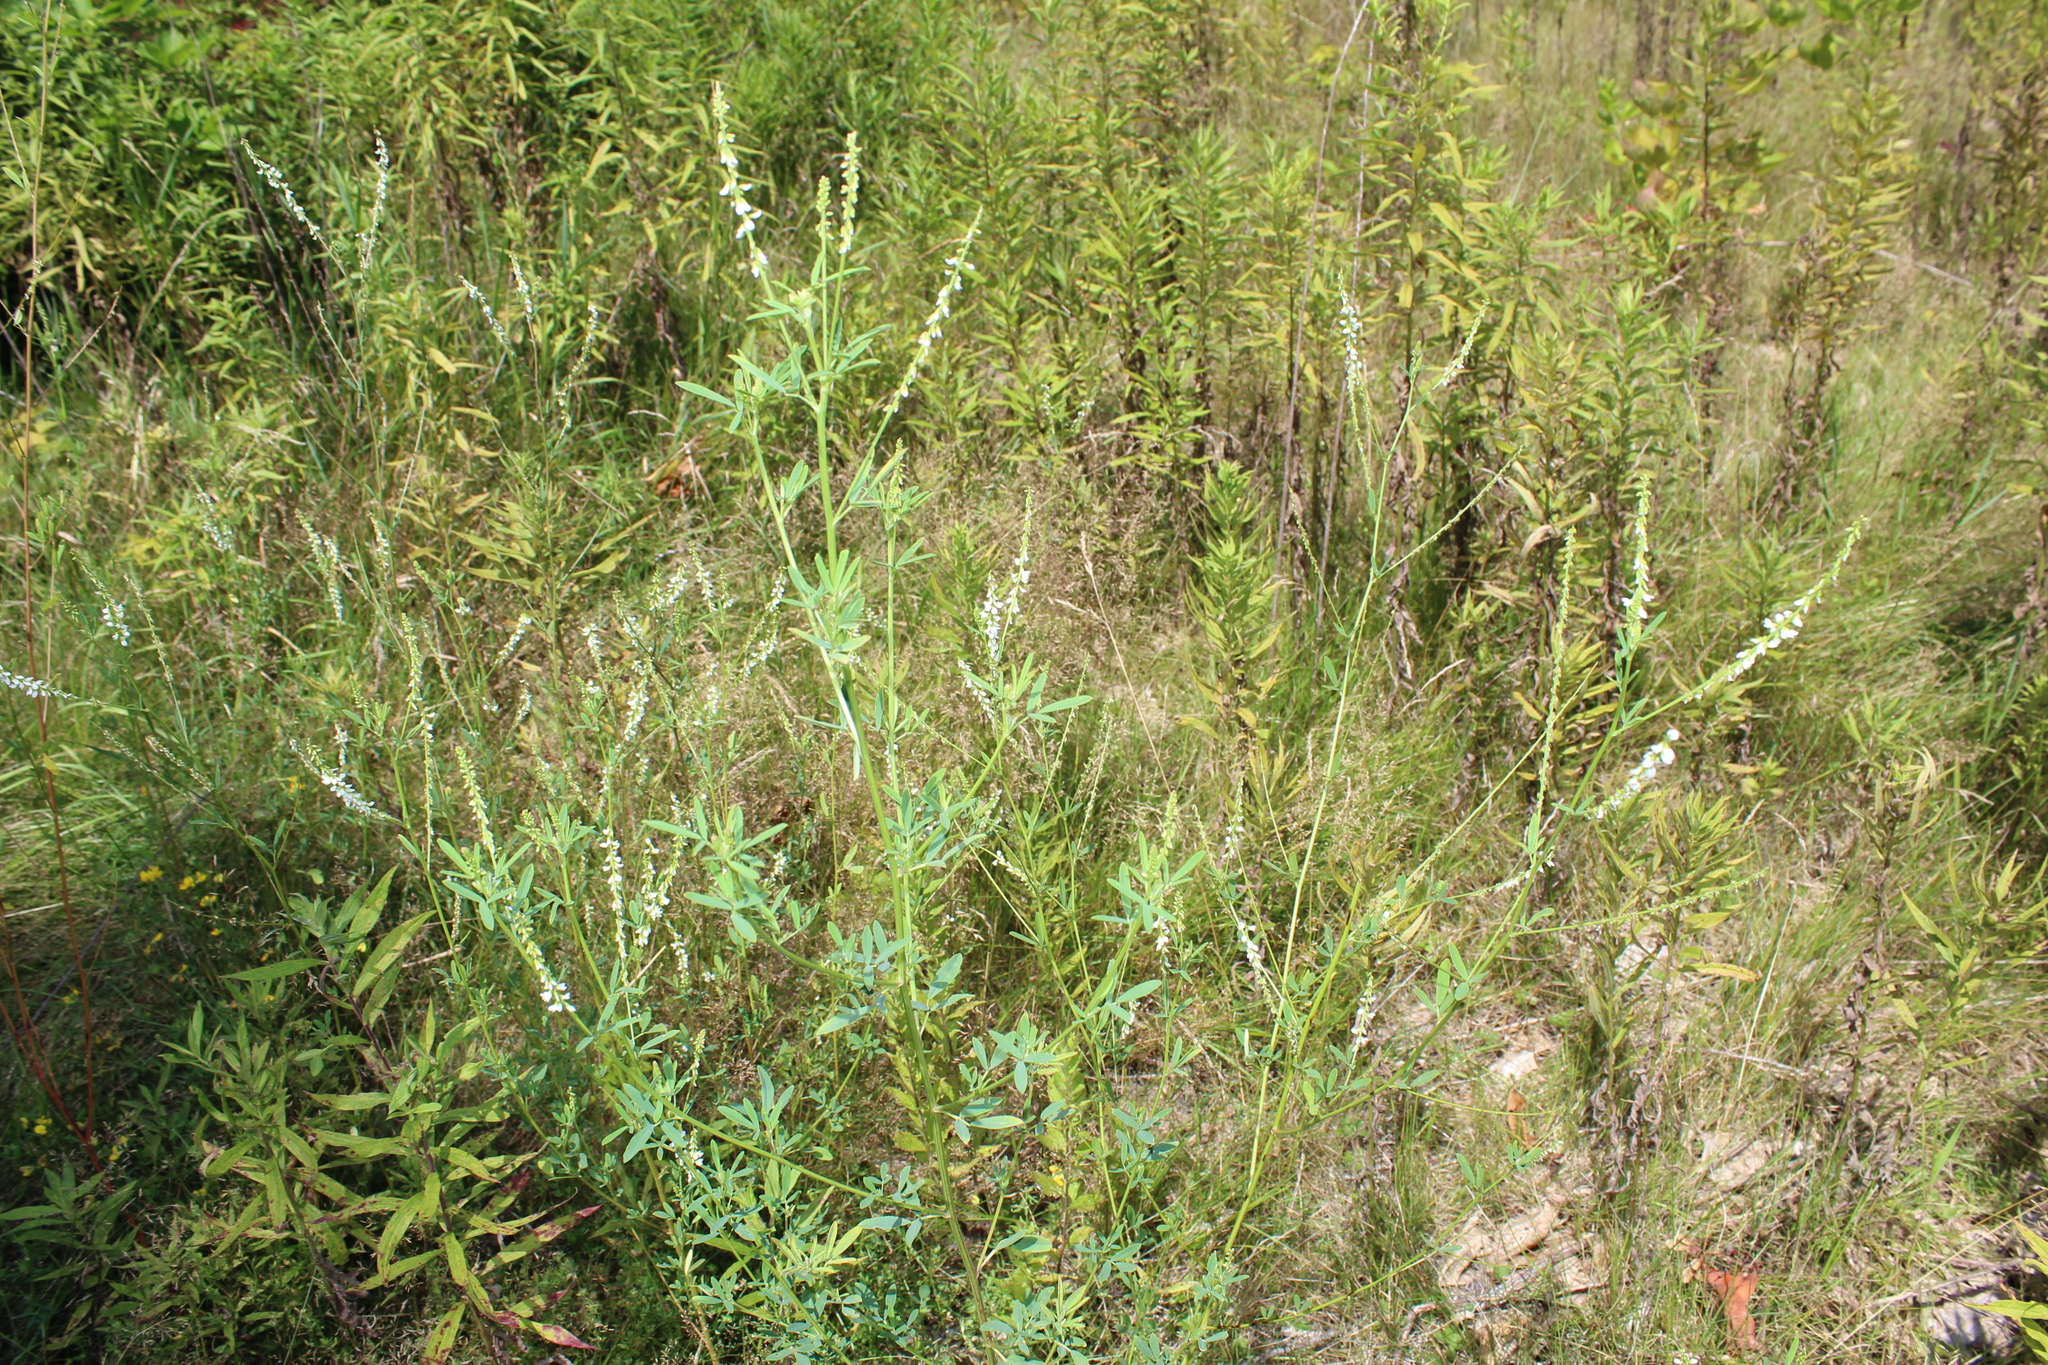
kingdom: Plantae
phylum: Tracheophyta
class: Magnoliopsida
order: Fabales
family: Fabaceae
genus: Melilotus
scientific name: Melilotus albus
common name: White melilot
